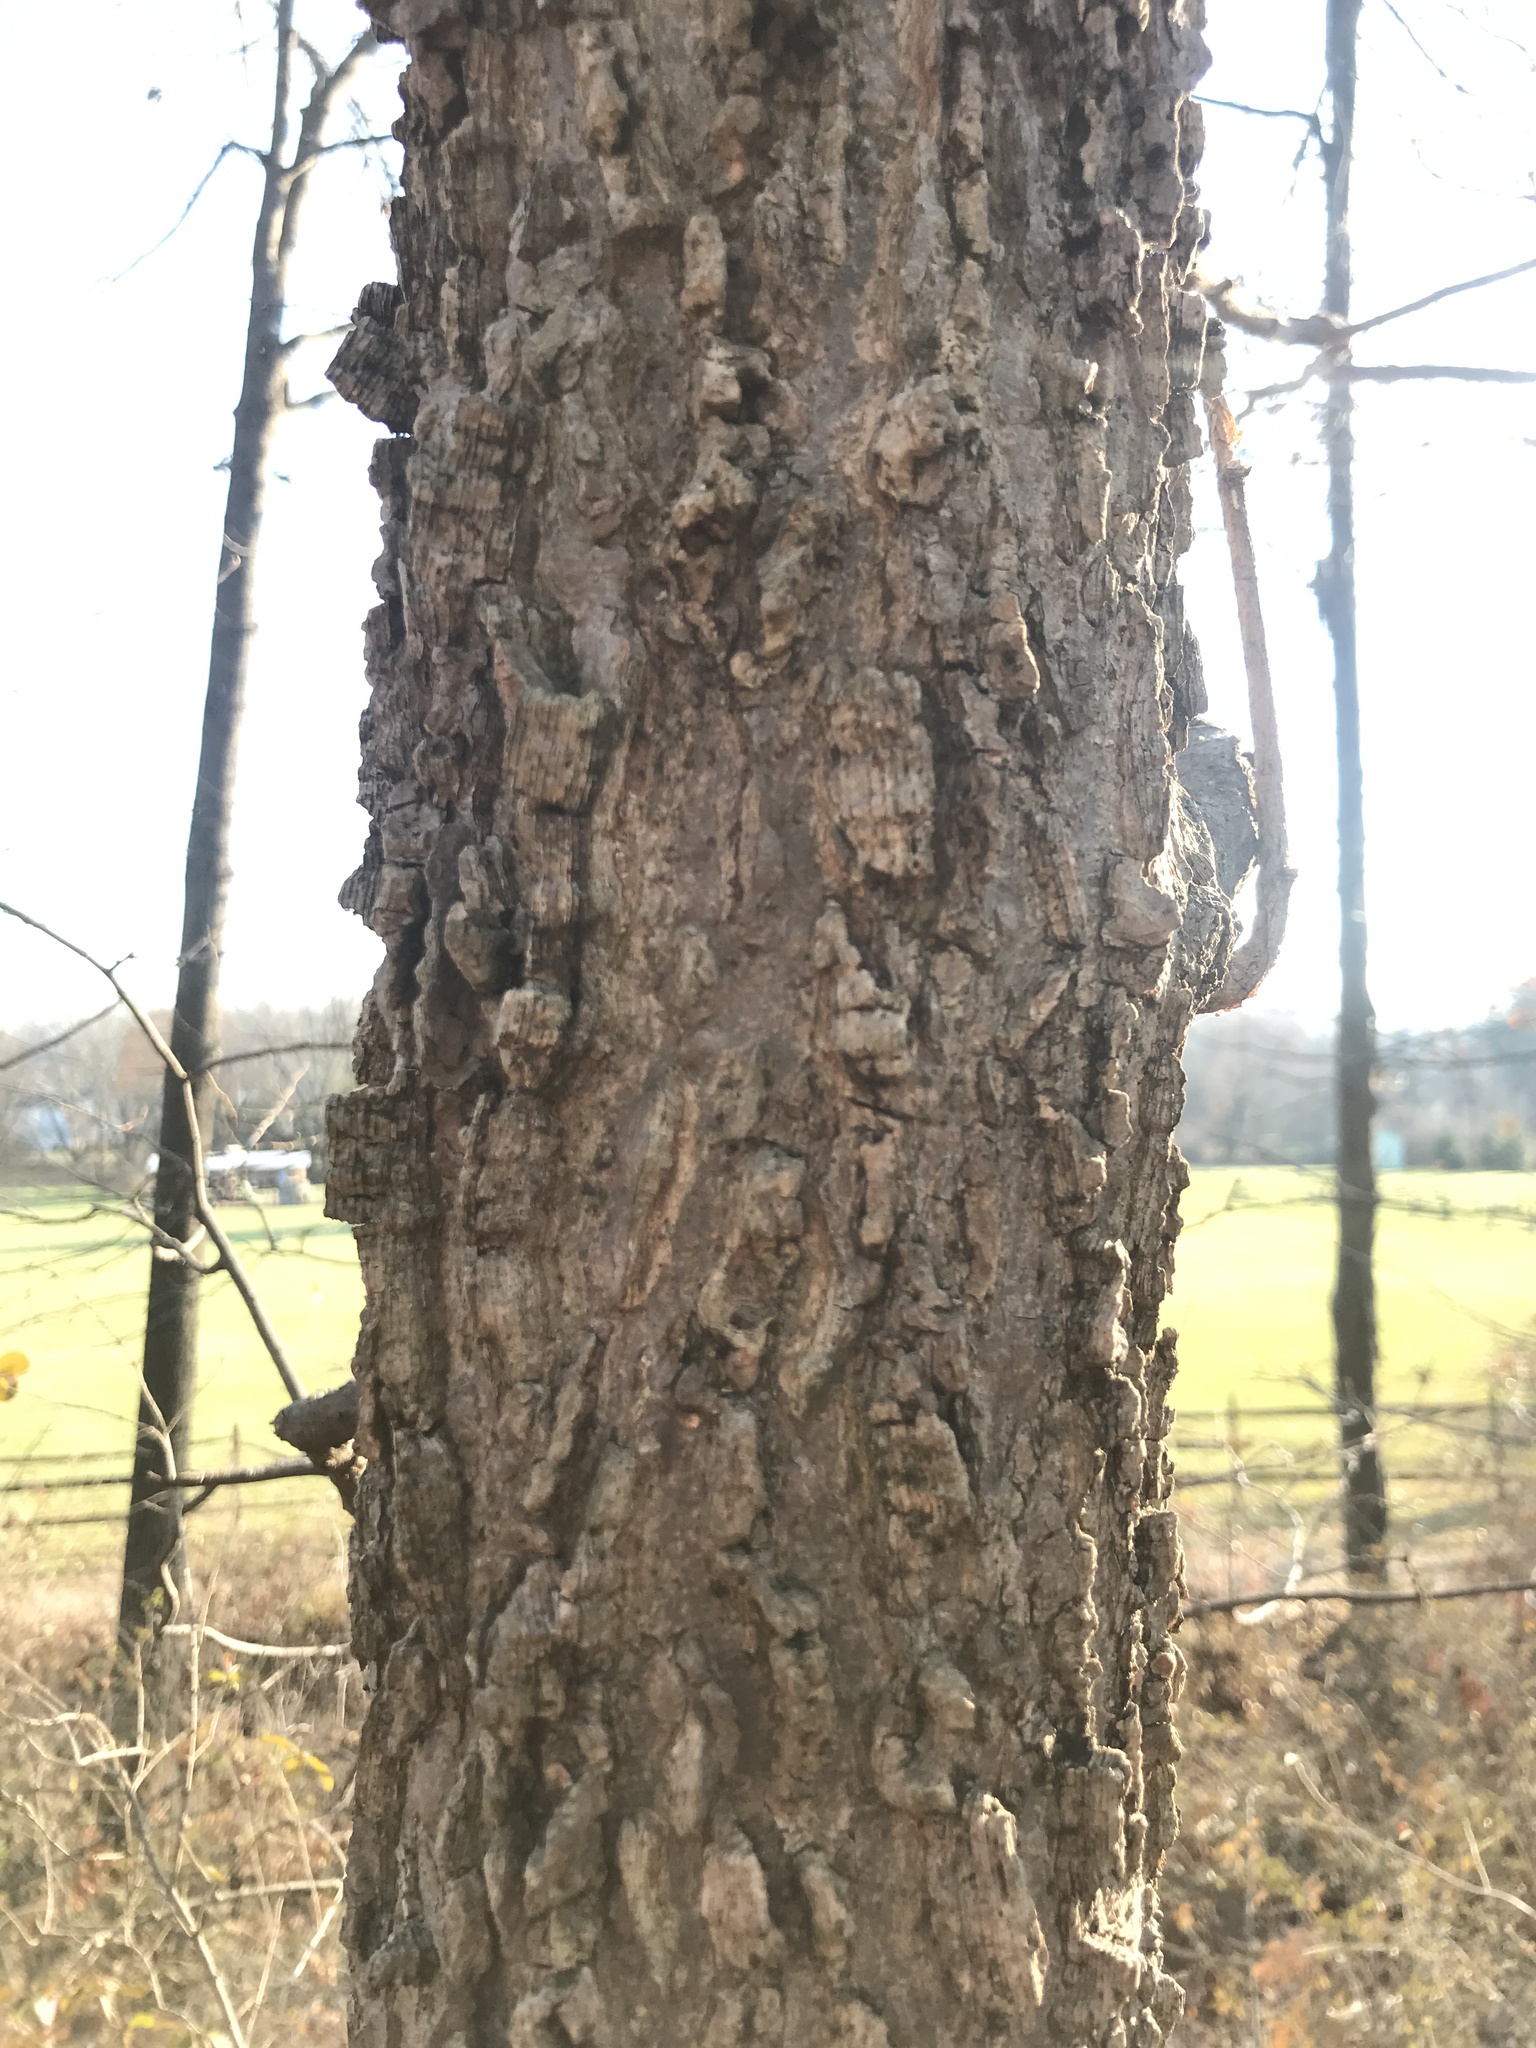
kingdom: Plantae
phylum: Tracheophyta
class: Magnoliopsida
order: Rosales
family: Cannabaceae
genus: Celtis
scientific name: Celtis occidentalis
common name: Common hackberry
